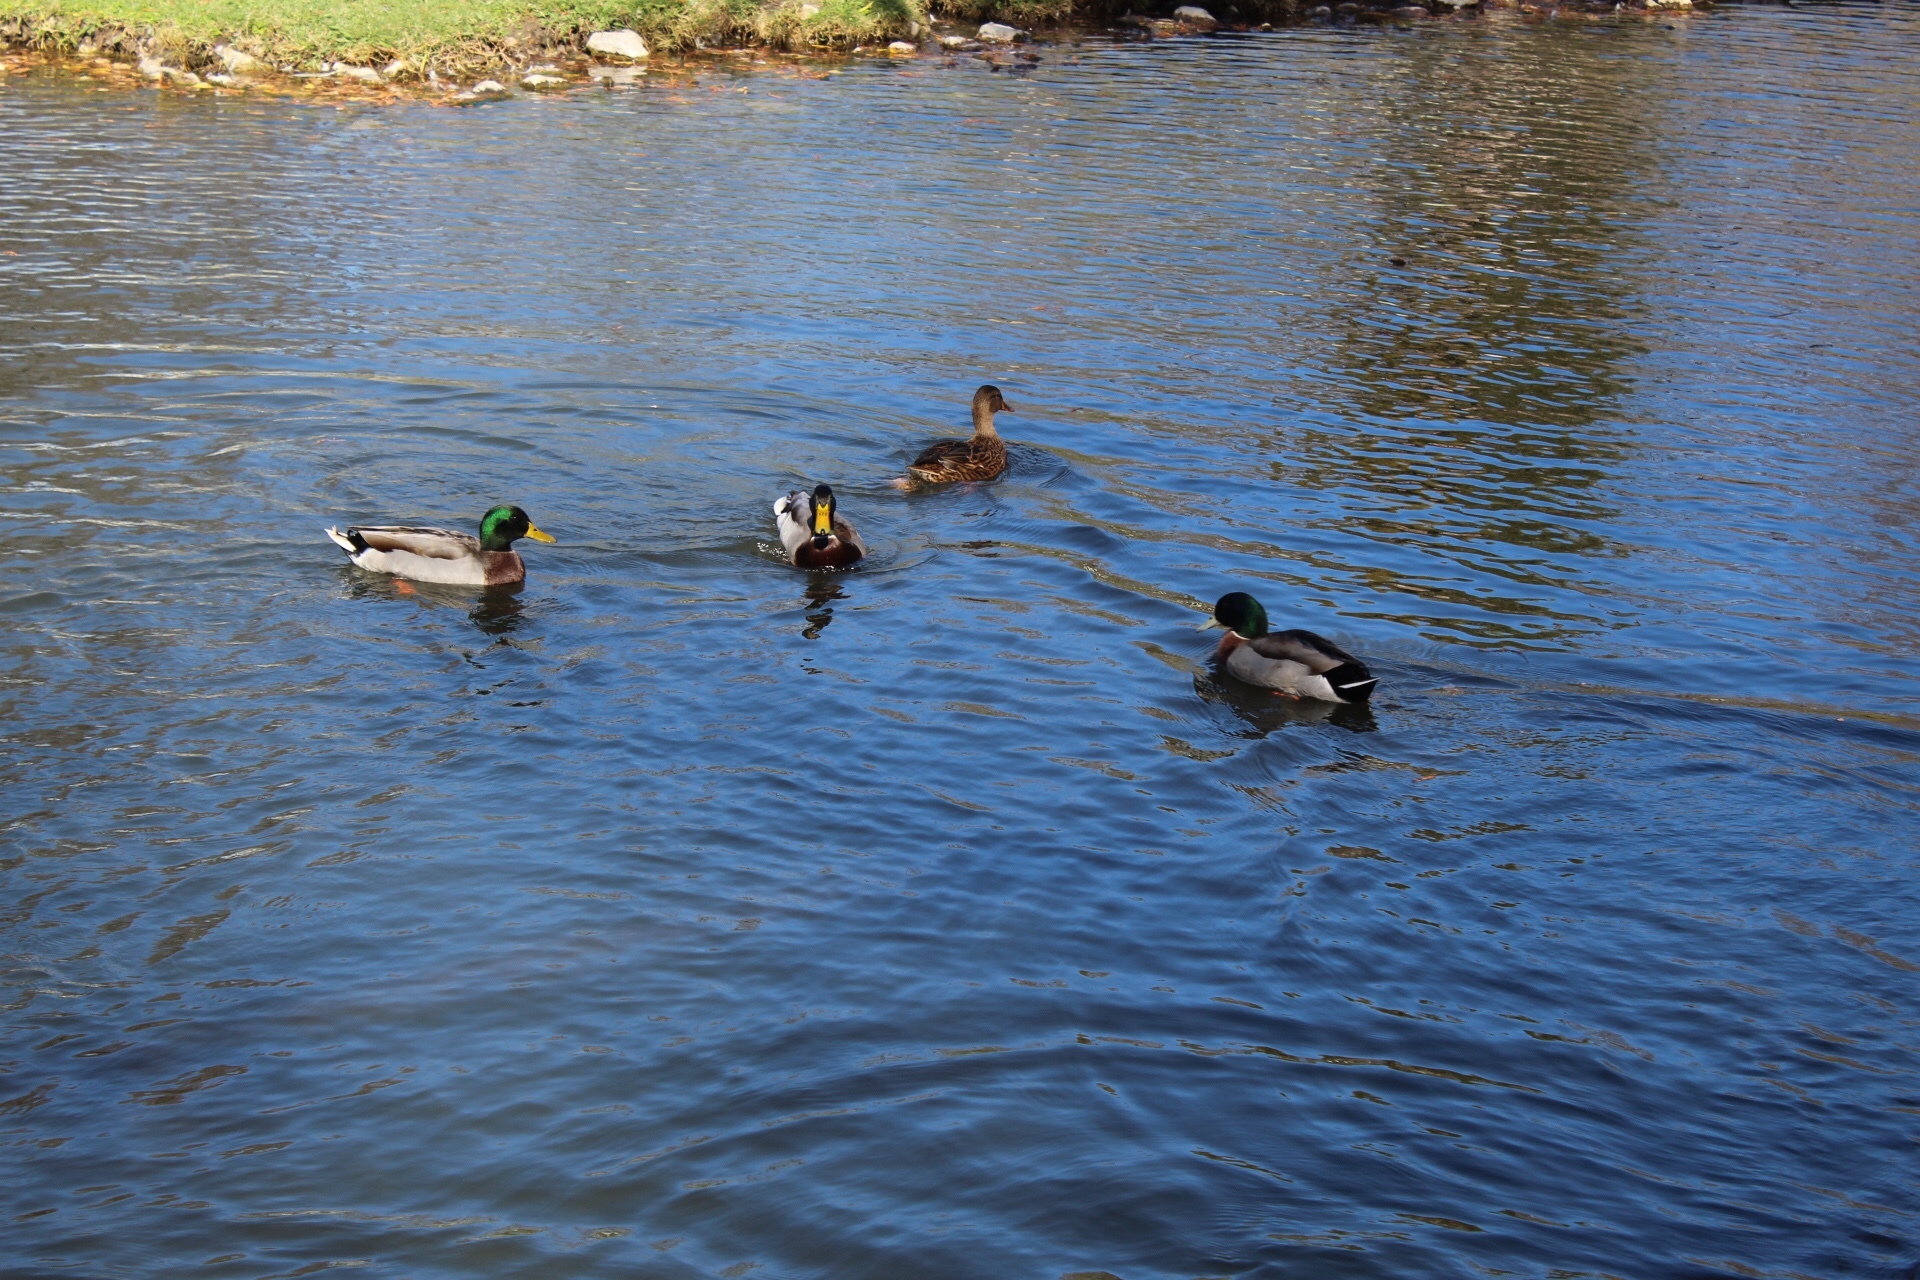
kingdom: Animalia
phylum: Chordata
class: Aves
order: Anseriformes
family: Anatidae
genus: Anas
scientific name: Anas platyrhynchos
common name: Mallard
